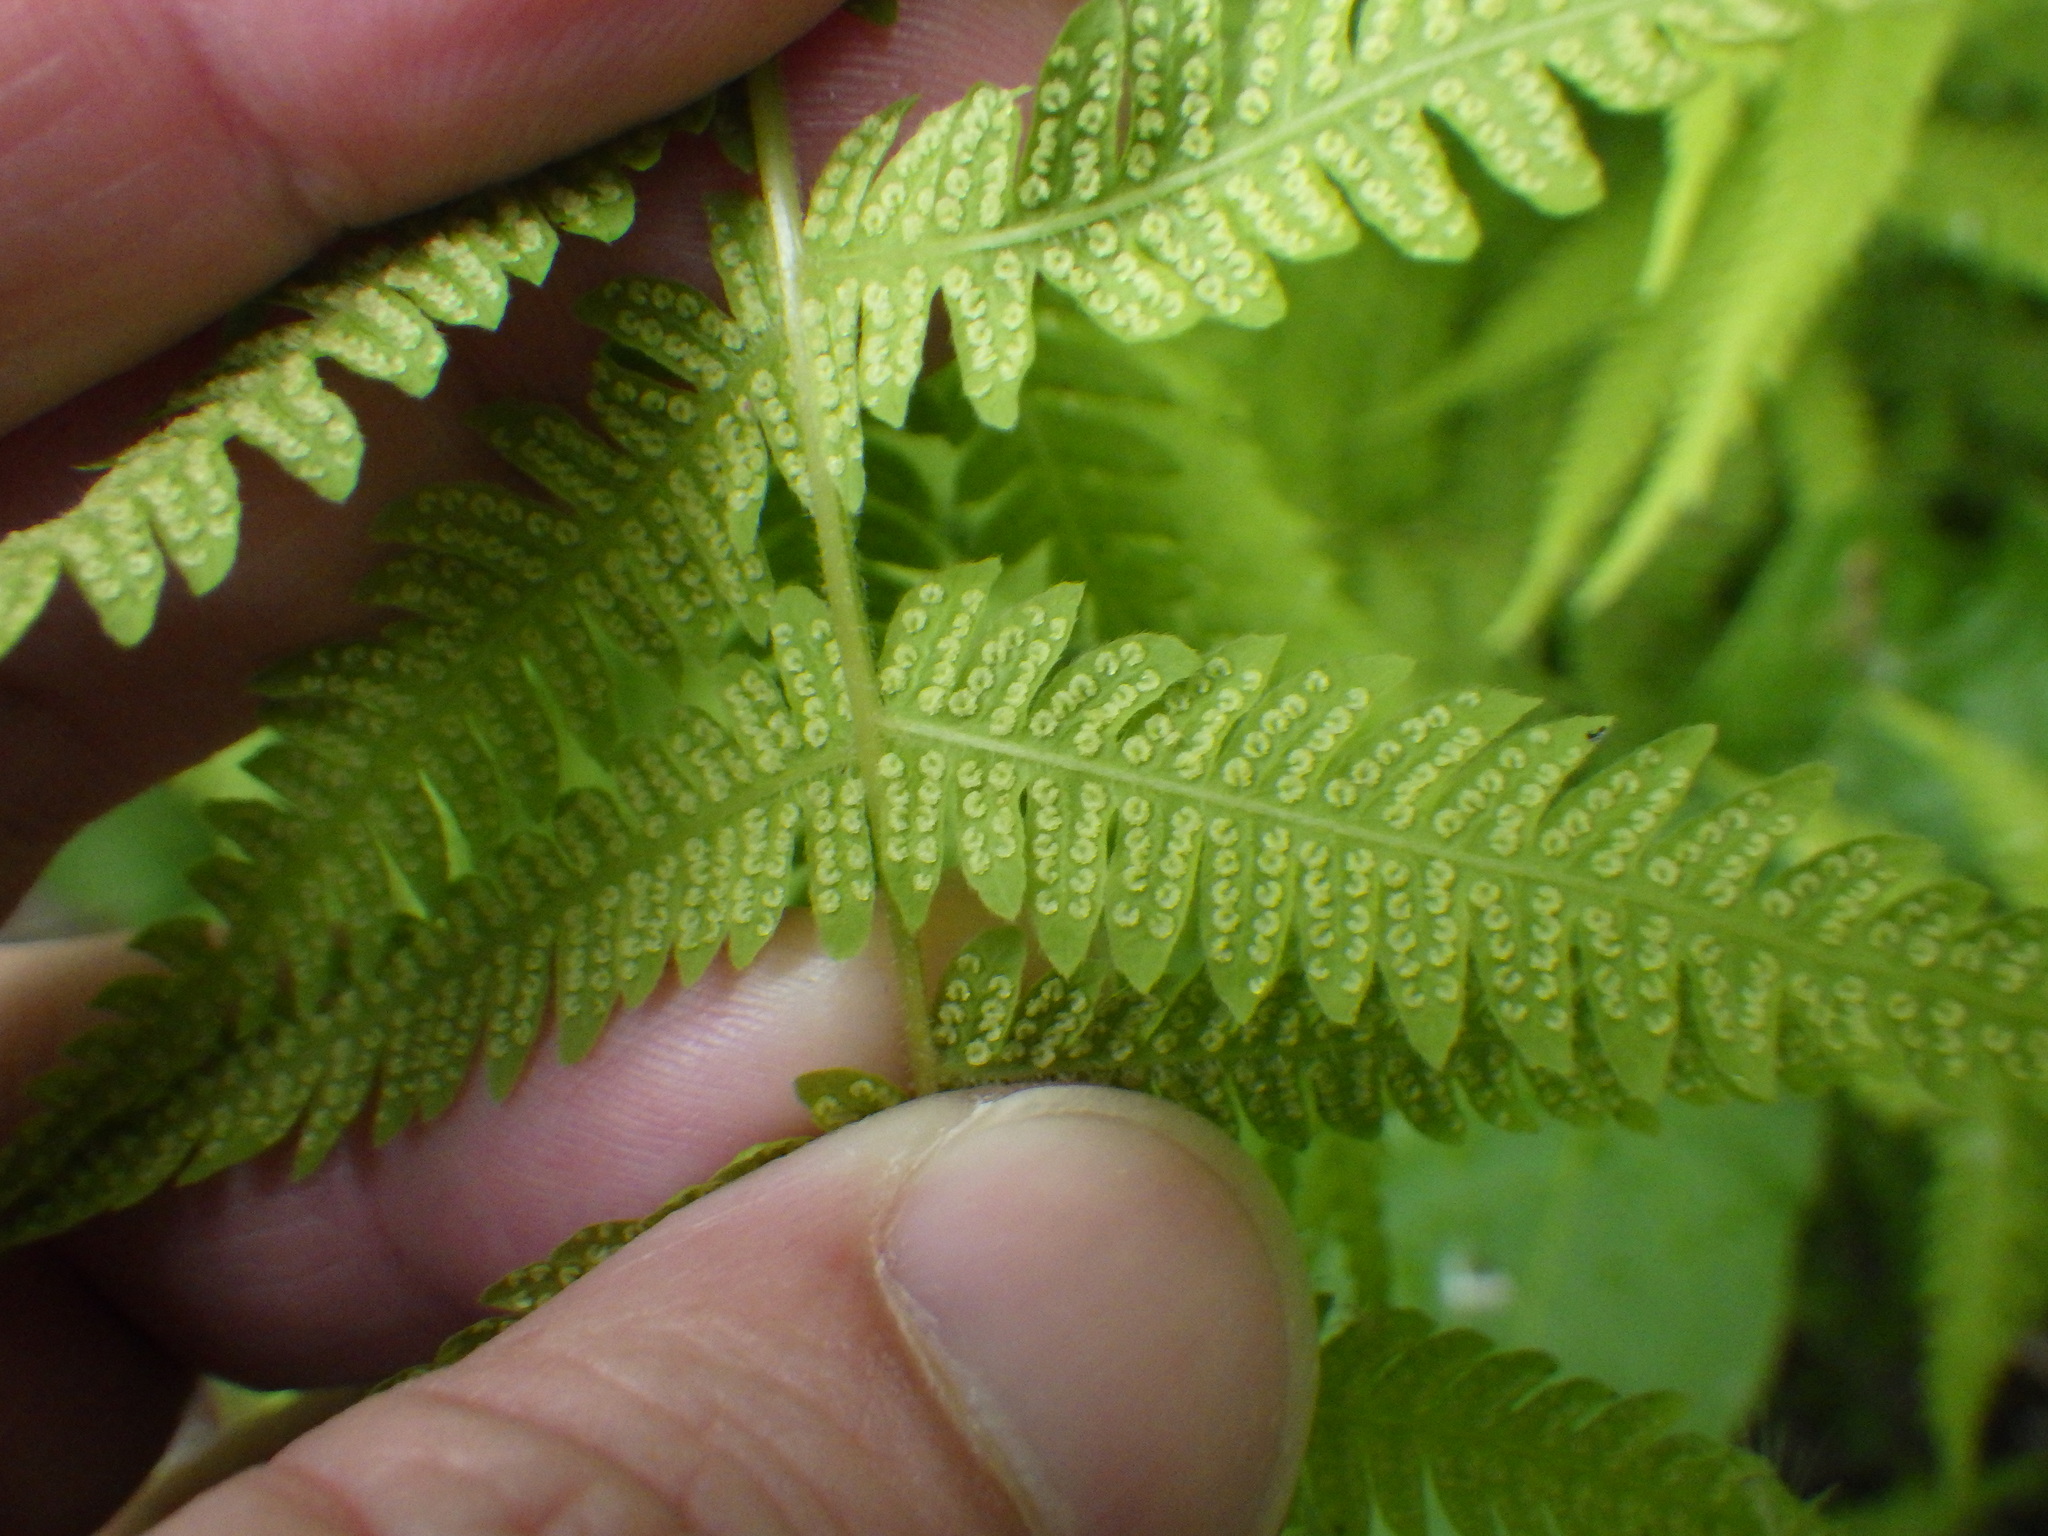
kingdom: Plantae
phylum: Tracheophyta
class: Polypodiopsida
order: Polypodiales
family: Thelypteridaceae
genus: Amauropelta
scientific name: Amauropelta noveboracensis
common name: New york fern
